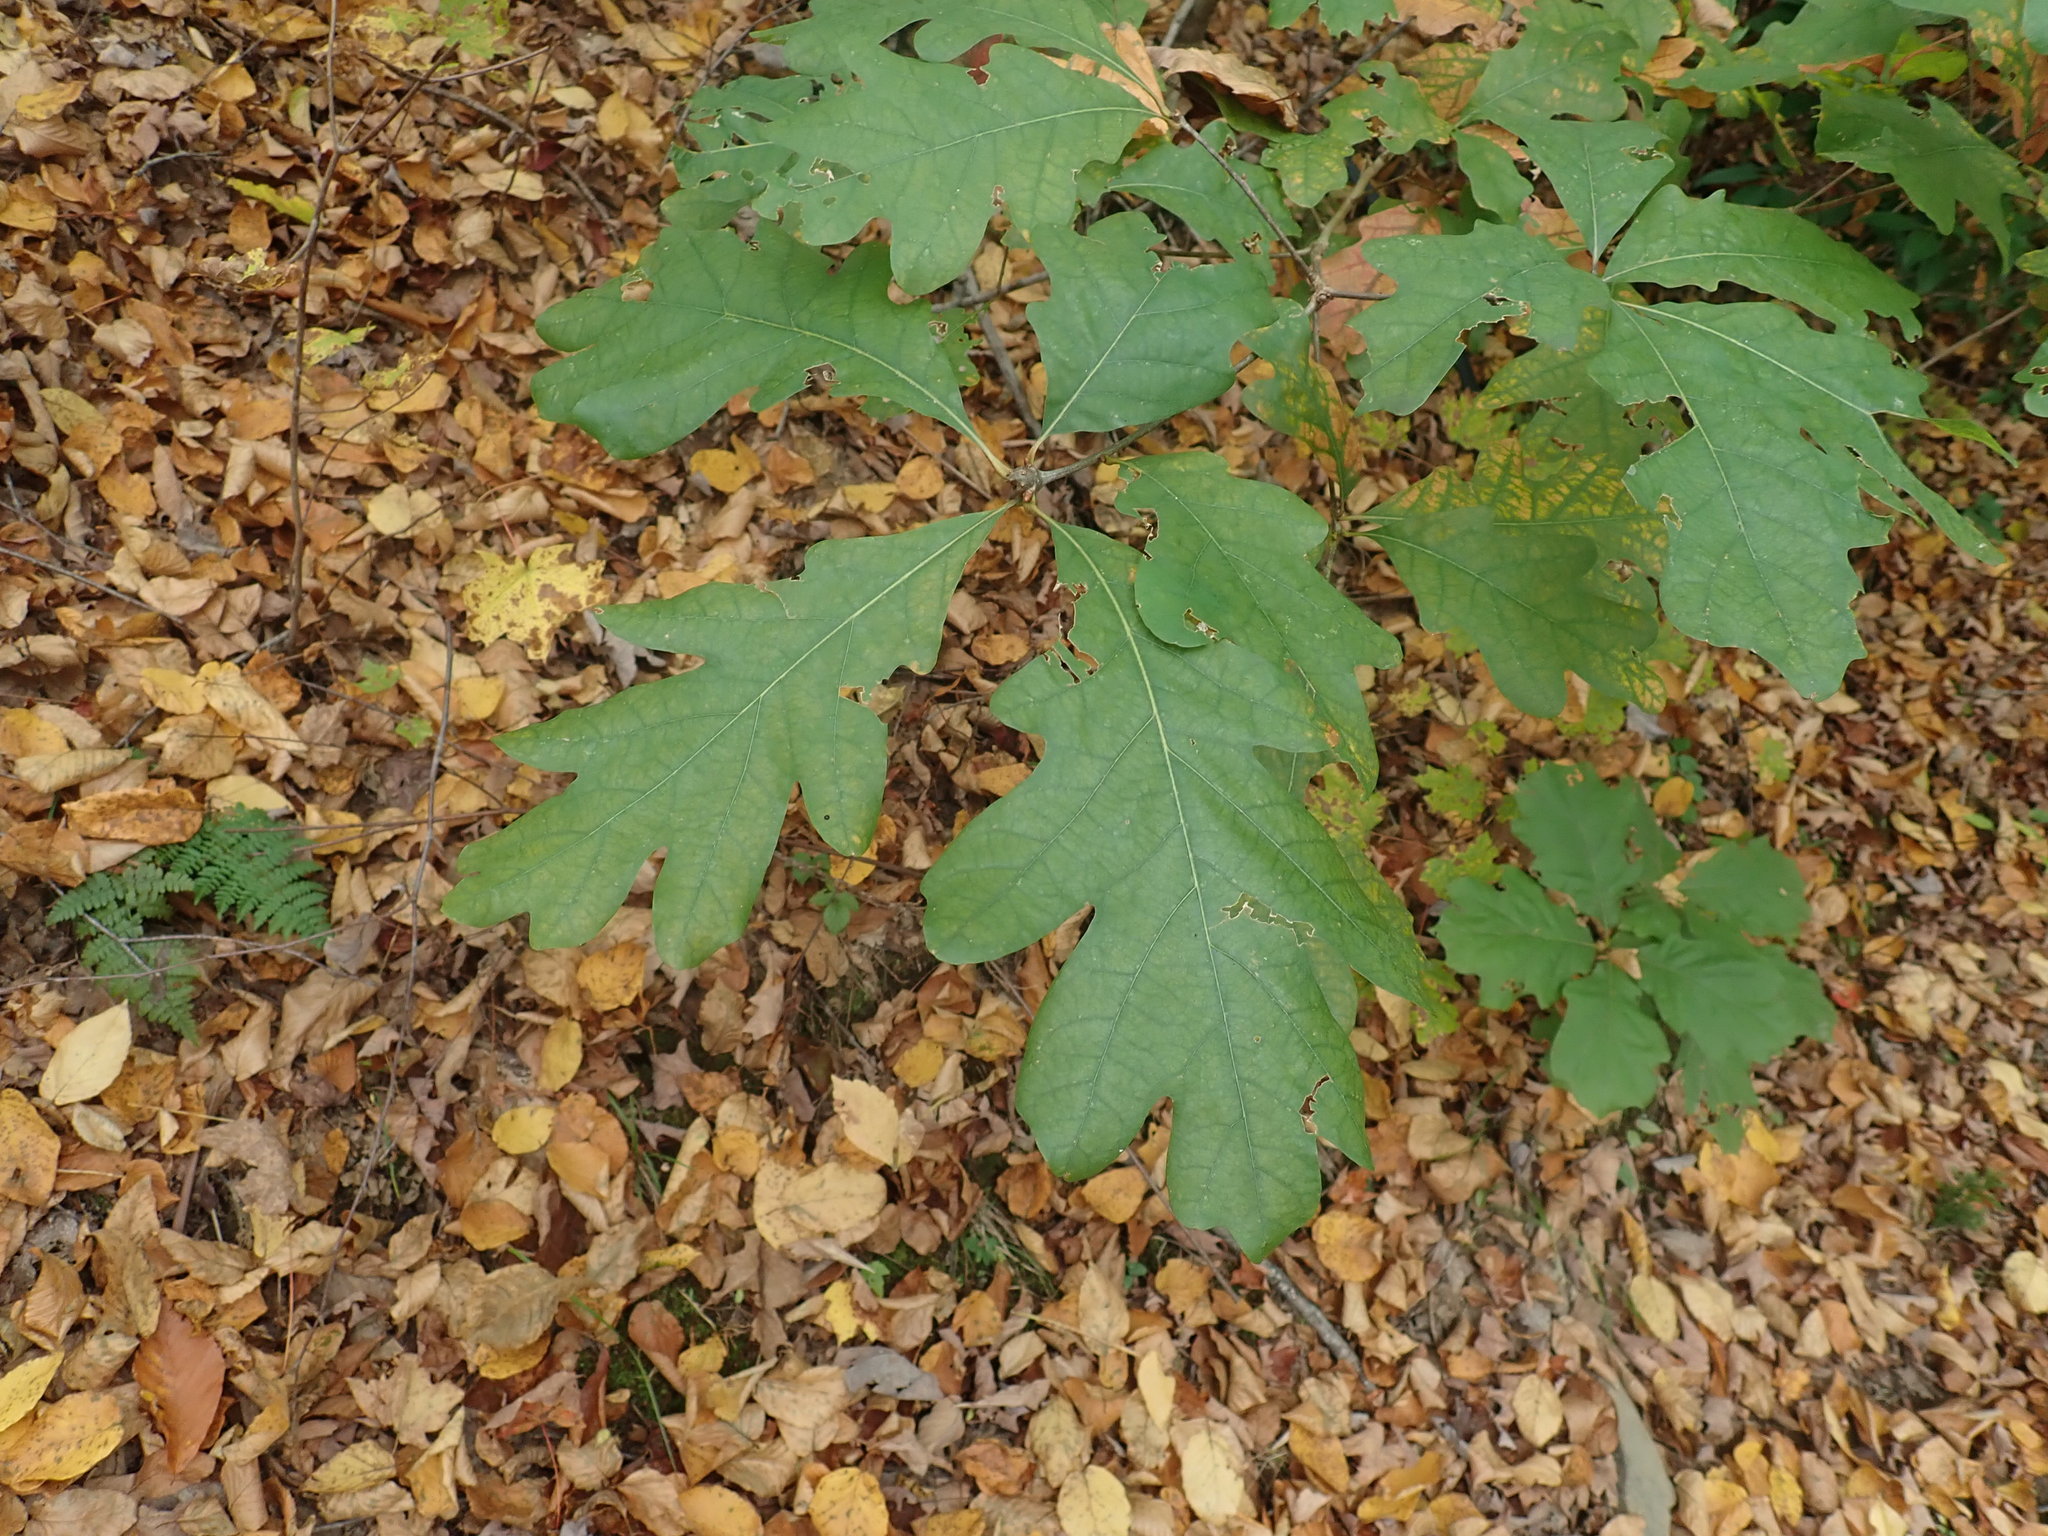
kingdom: Plantae
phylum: Tracheophyta
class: Magnoliopsida
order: Fagales
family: Fagaceae
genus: Quercus
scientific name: Quercus alba
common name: White oak
